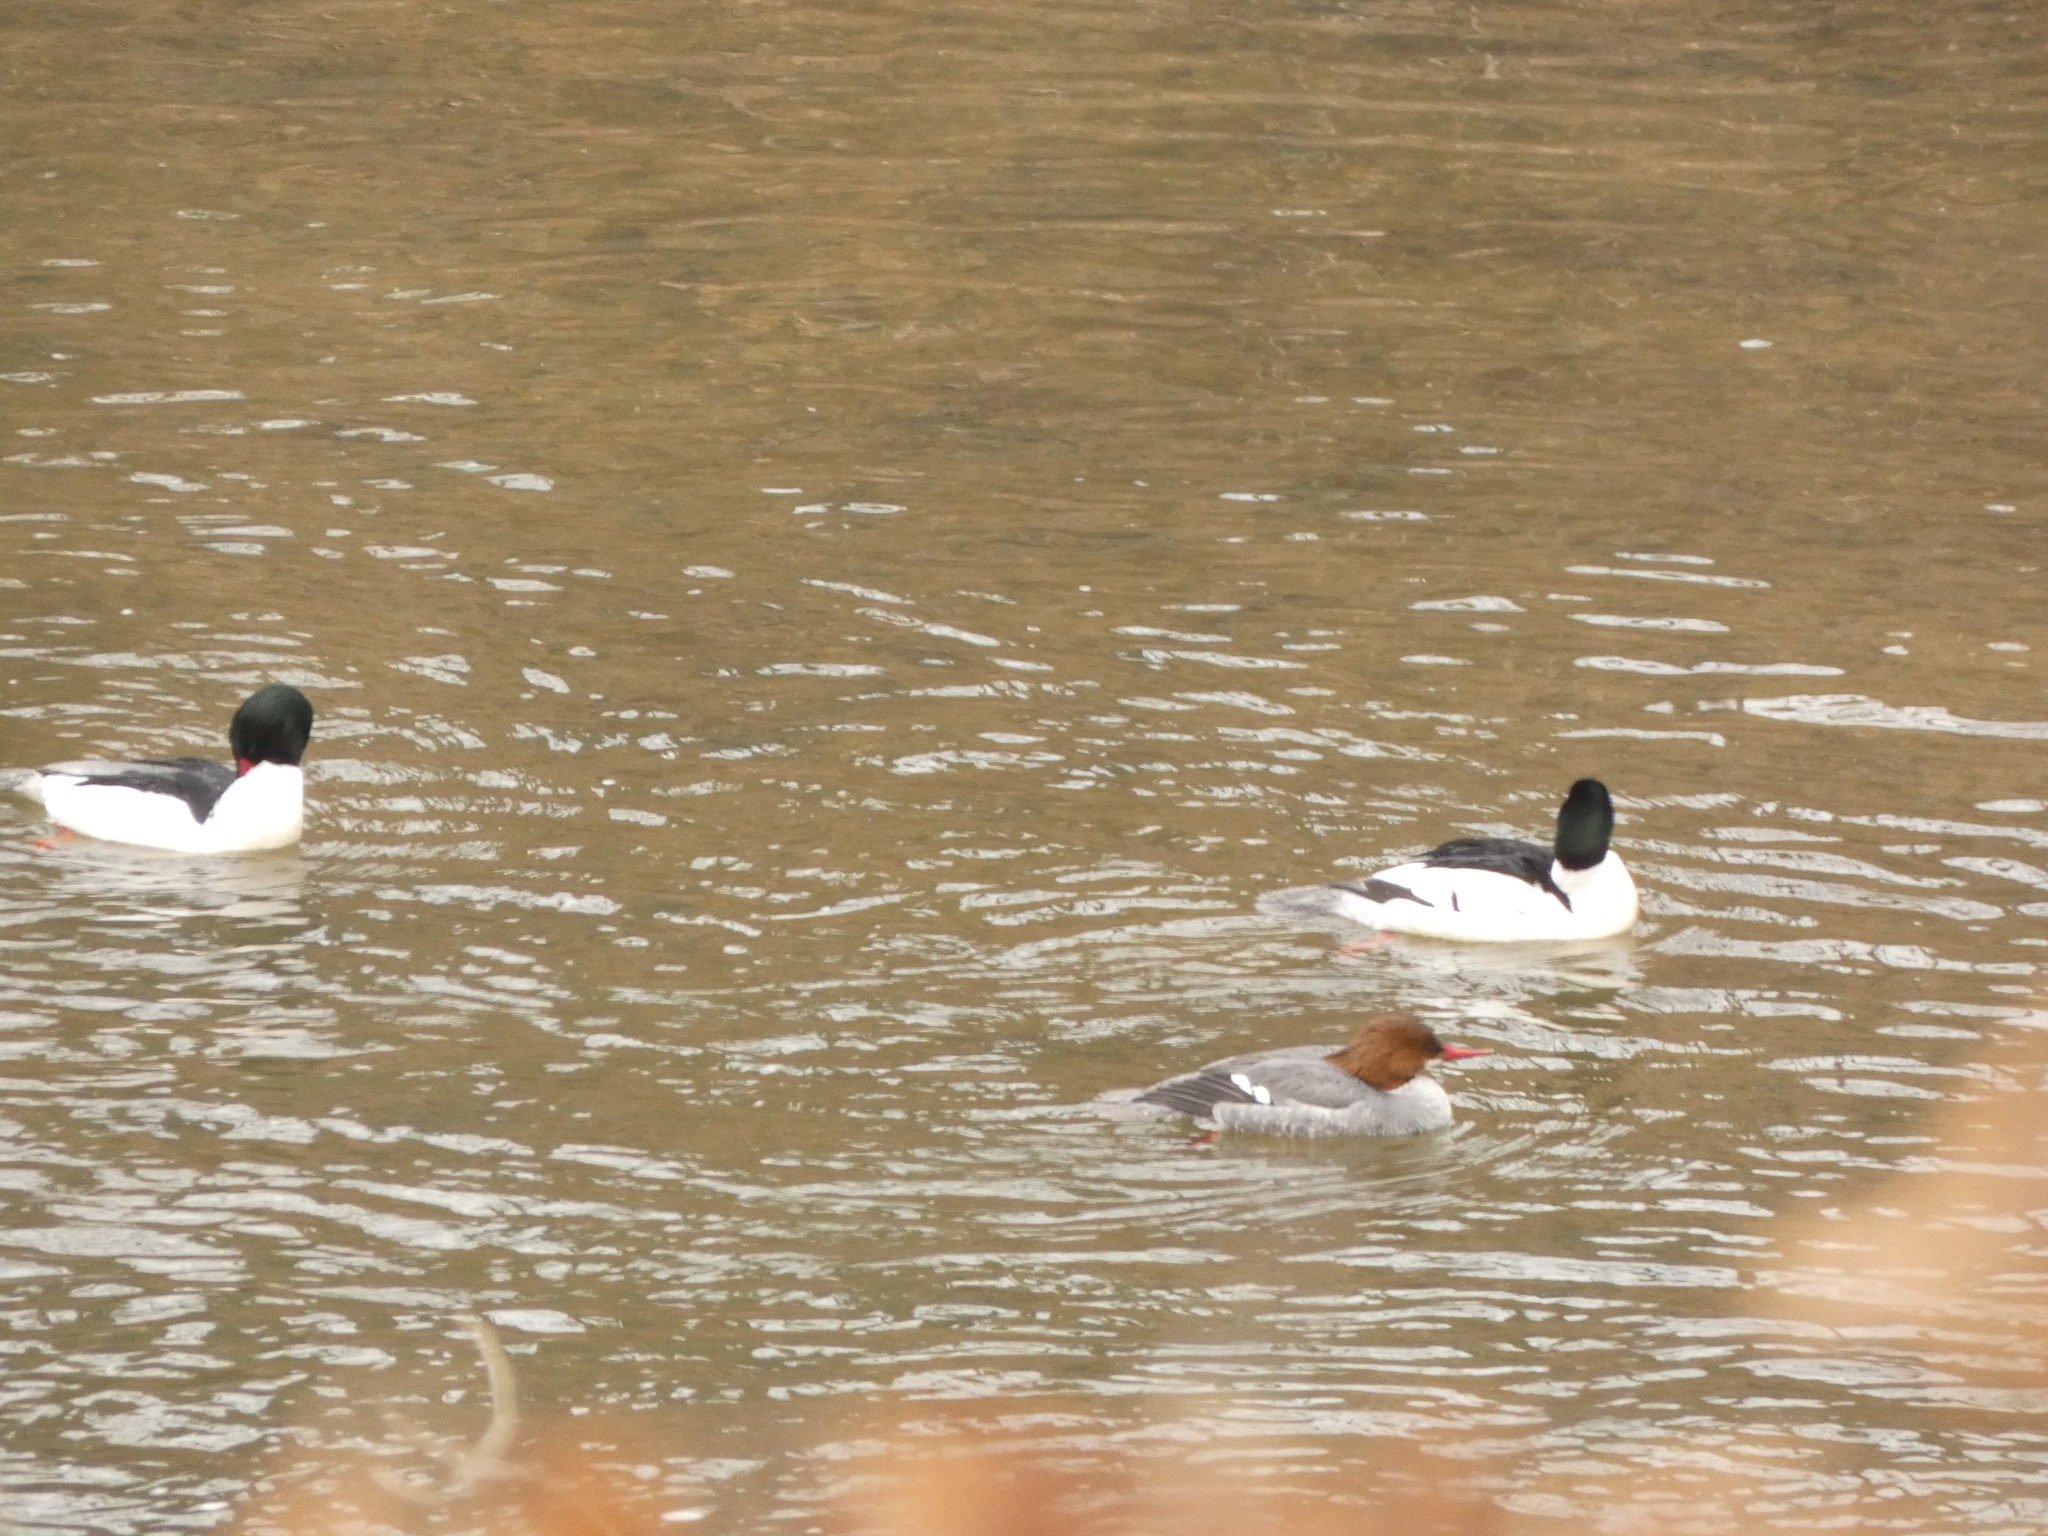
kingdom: Animalia
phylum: Chordata
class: Aves
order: Anseriformes
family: Anatidae
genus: Mergus
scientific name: Mergus merganser
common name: Common merganser
